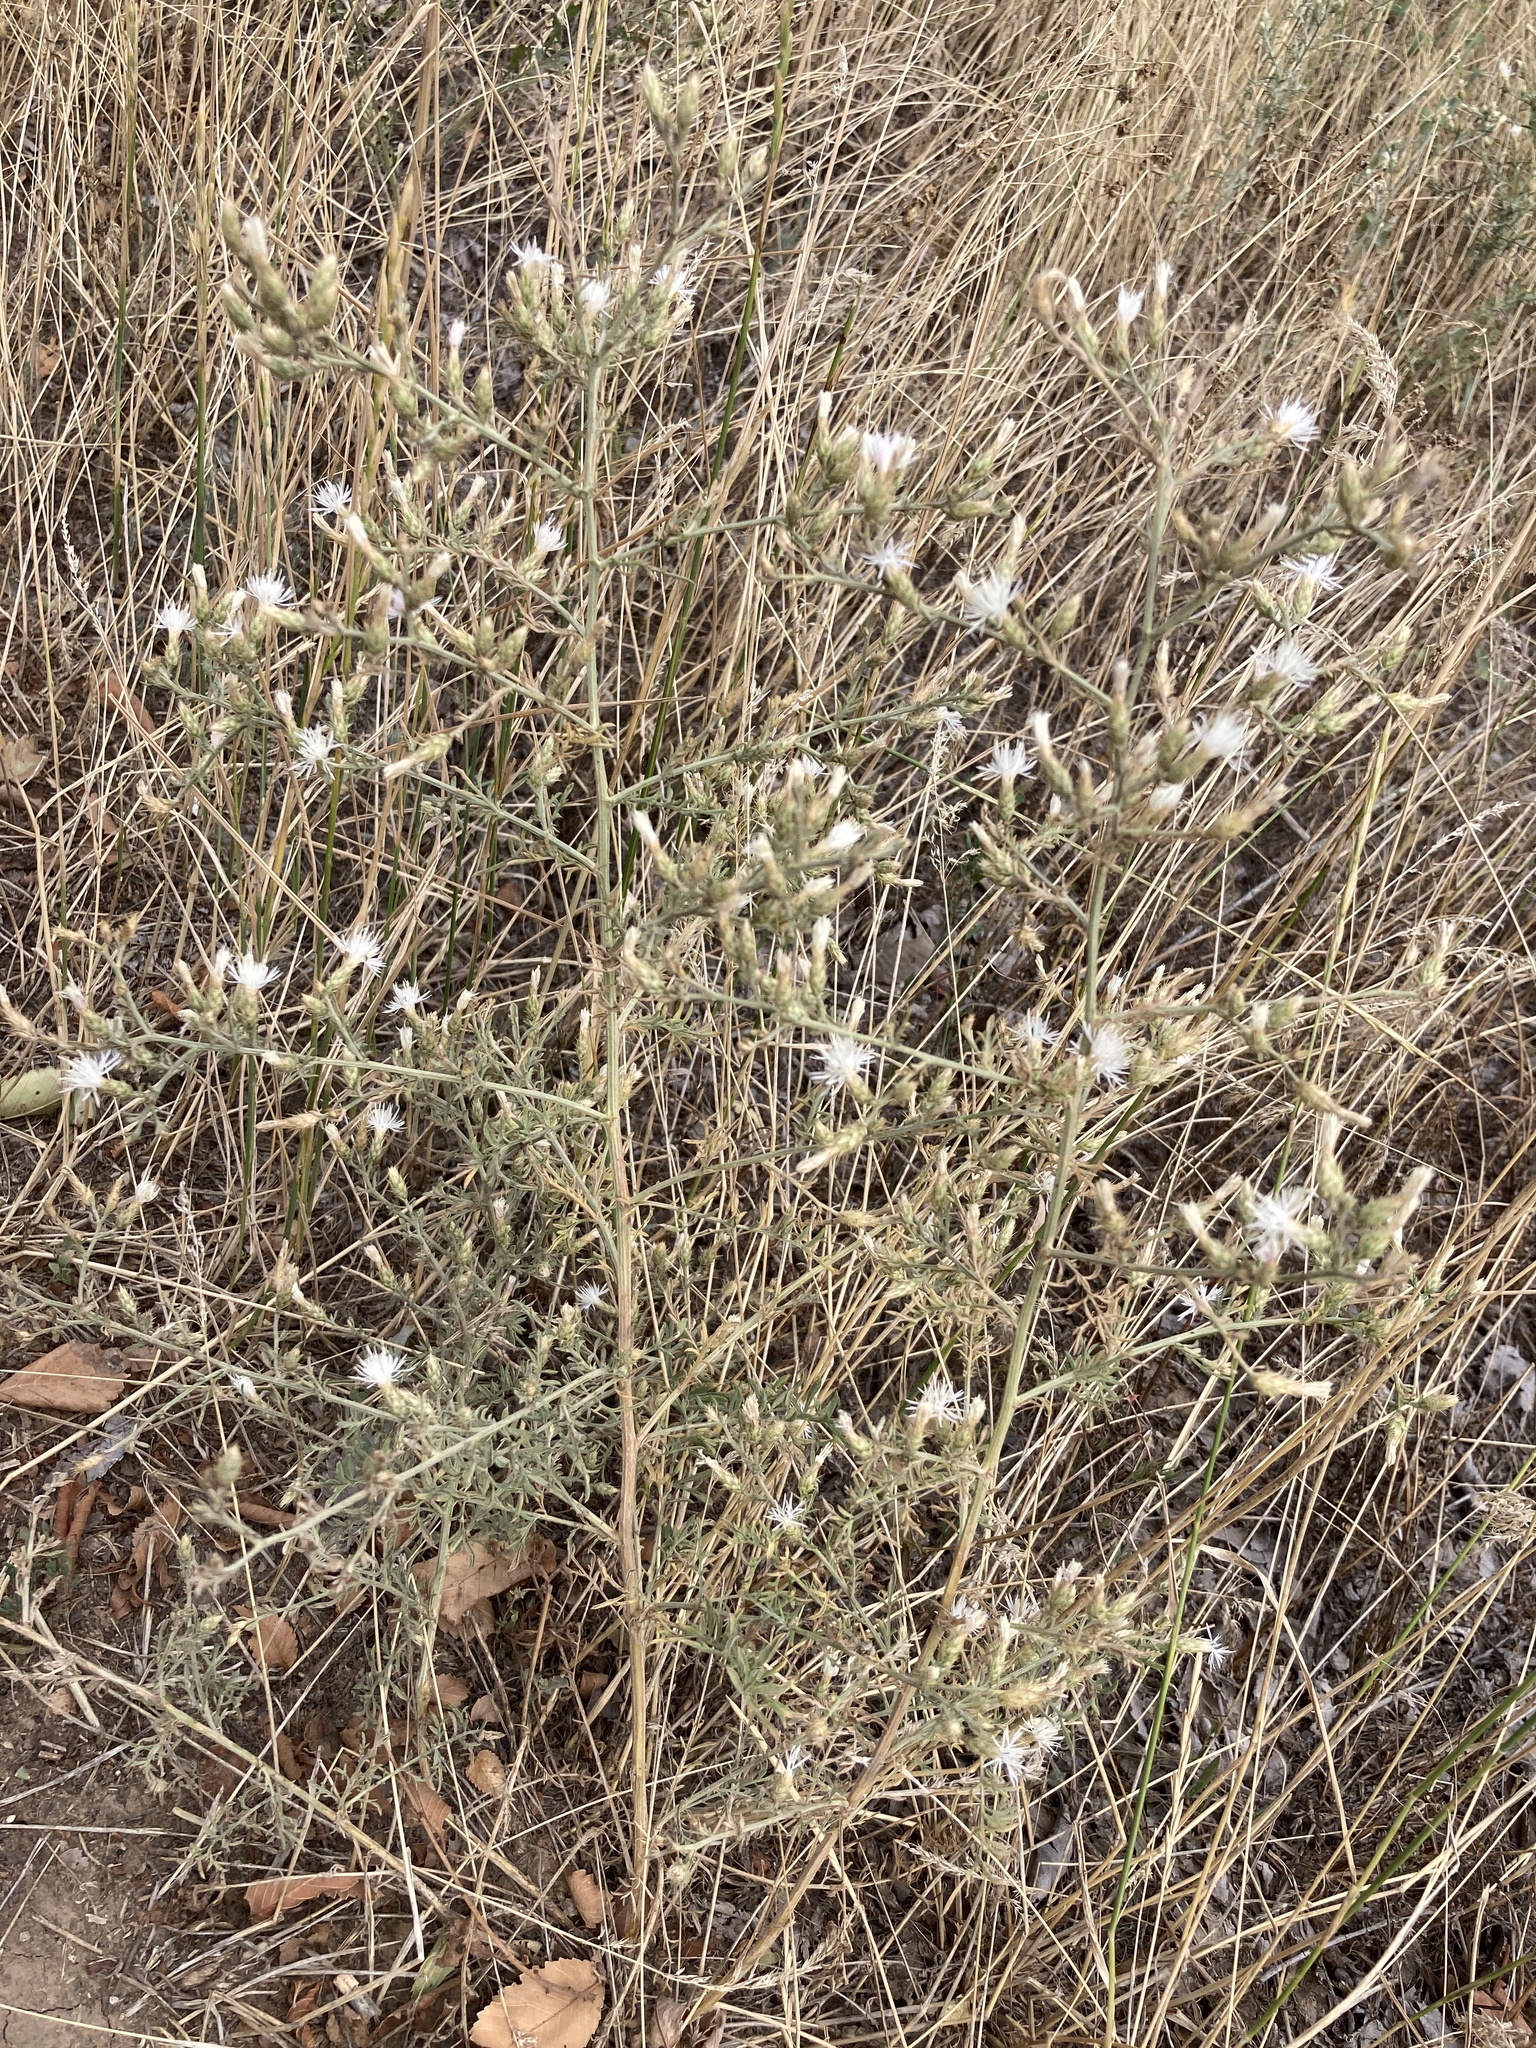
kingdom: Plantae
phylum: Tracheophyta
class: Magnoliopsida
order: Asterales
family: Asteraceae
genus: Centaurea
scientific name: Centaurea diffusa
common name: Diffuse knapweed
